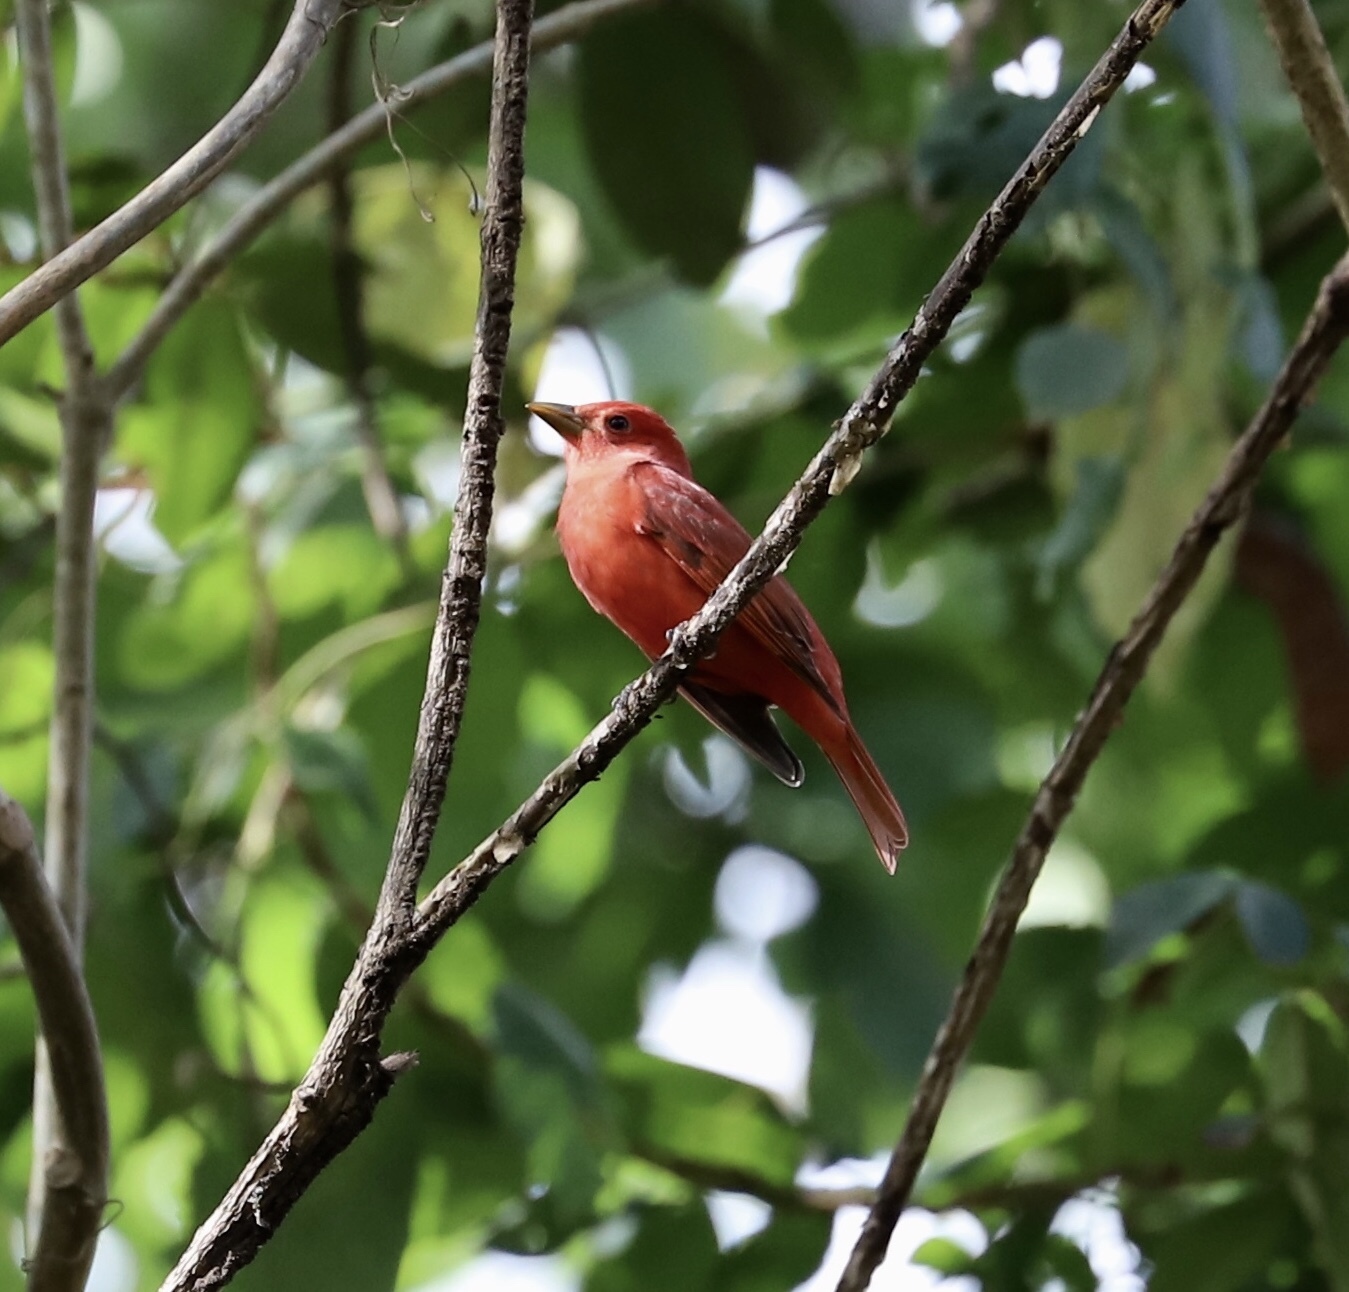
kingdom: Animalia
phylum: Chordata
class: Aves
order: Passeriformes
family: Cardinalidae
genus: Piranga
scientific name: Piranga rubra
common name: Summer tanager
